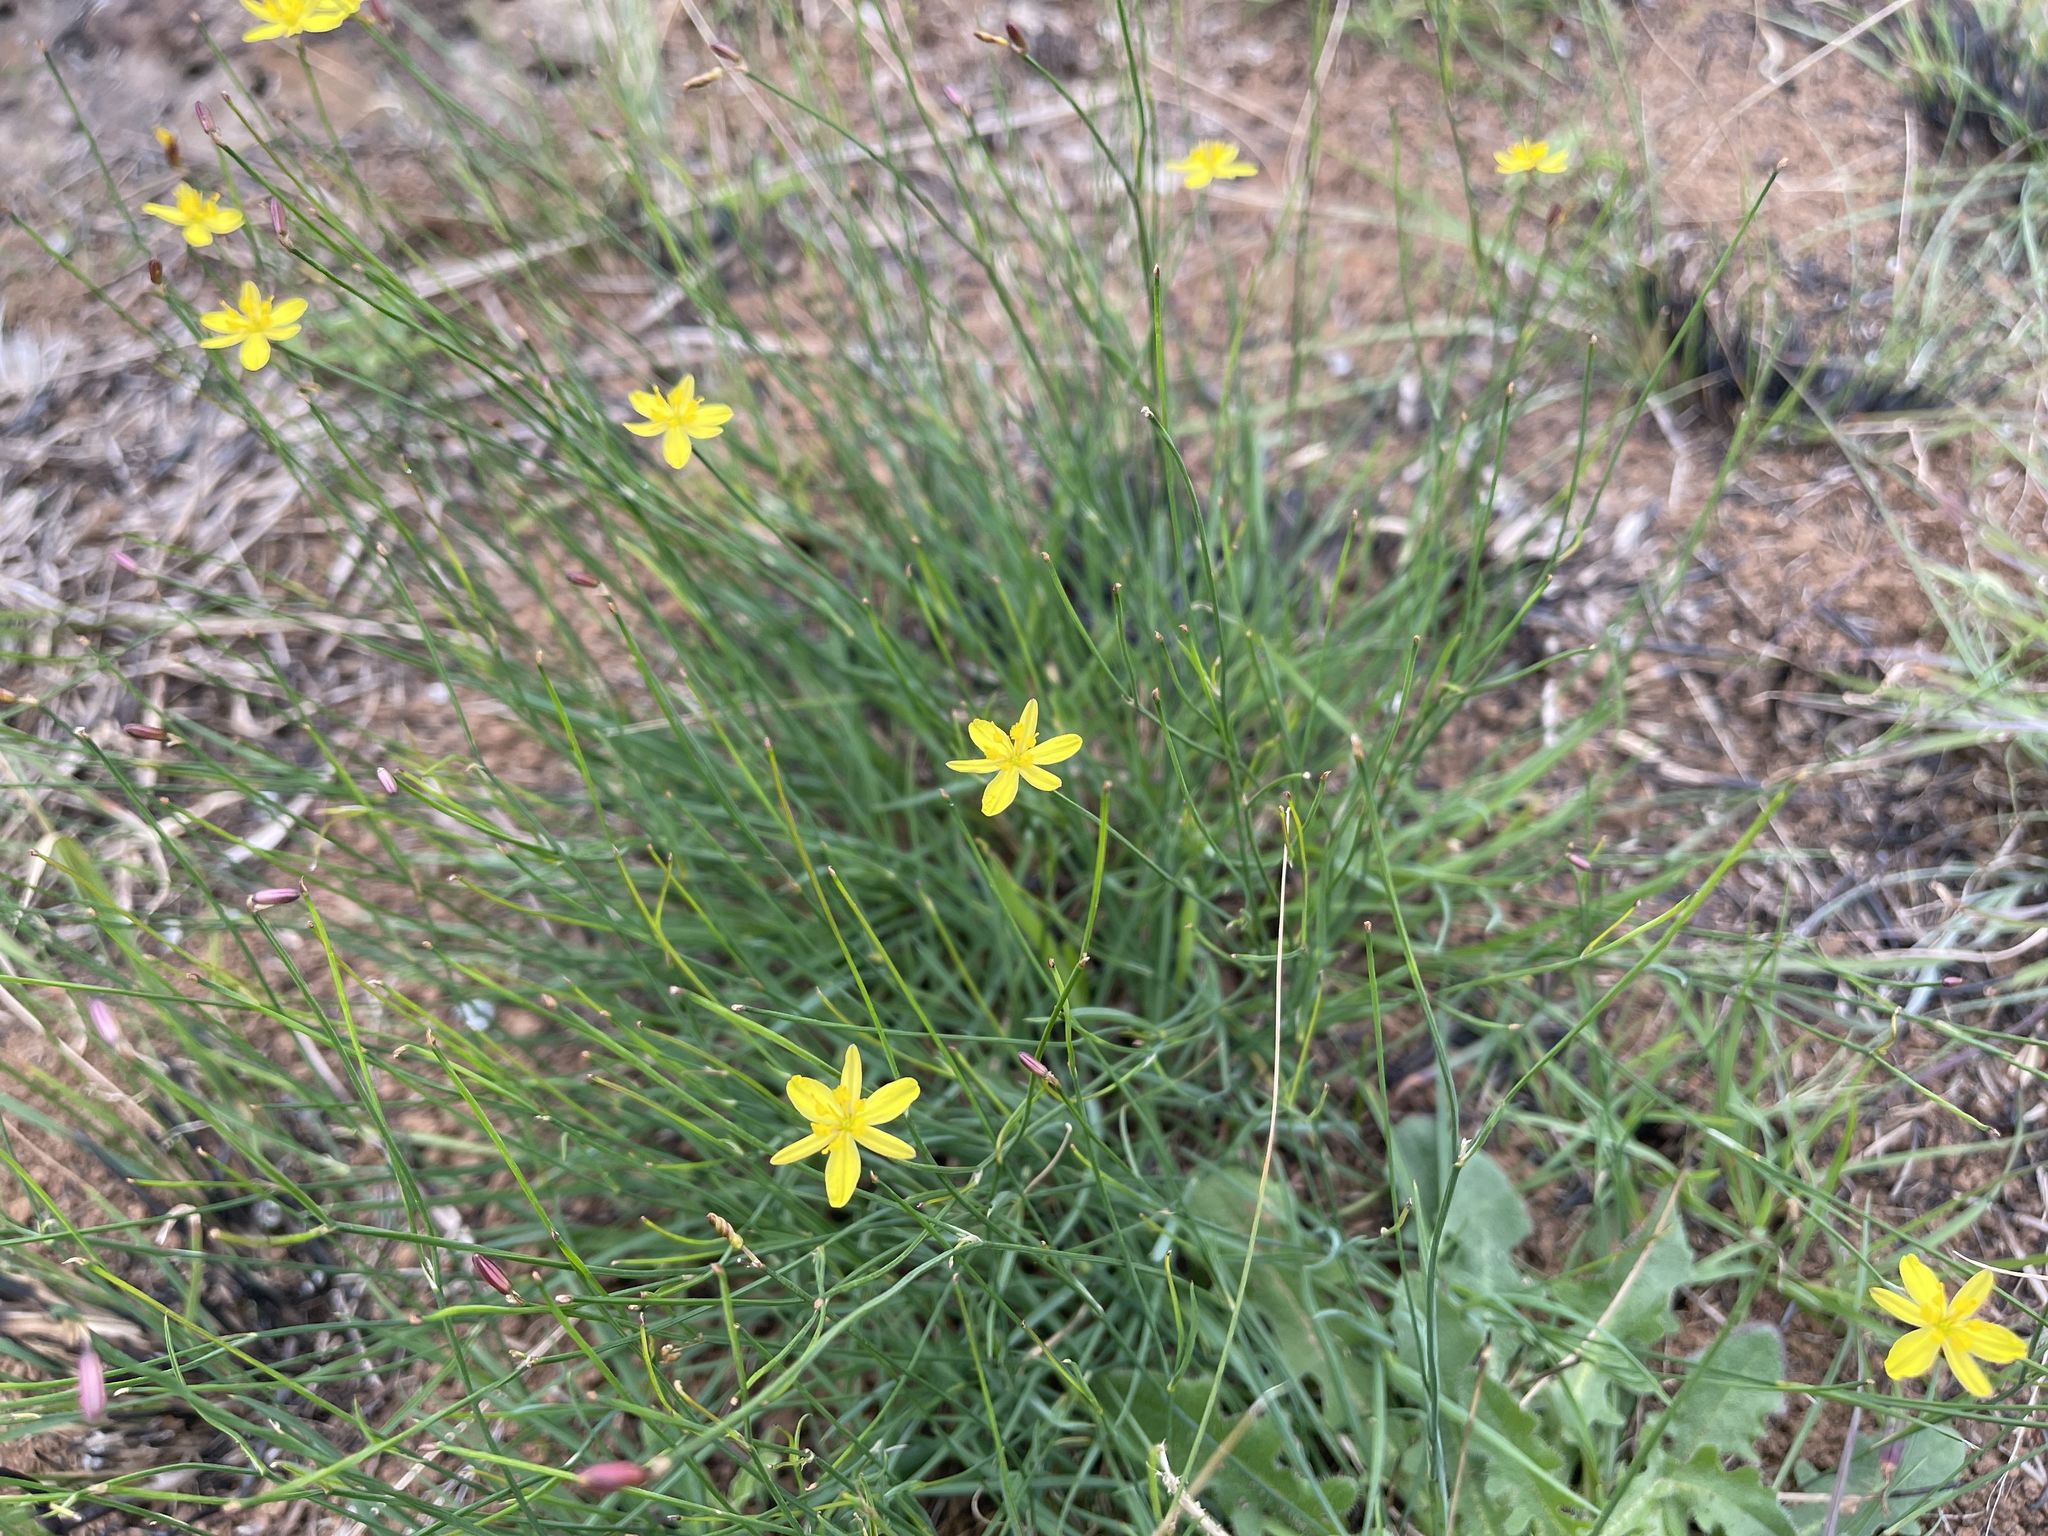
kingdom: Plantae
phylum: Tracheophyta
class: Liliopsida
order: Asparagales
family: Asphodelaceae
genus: Tricoryne
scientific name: Tricoryne elatior
